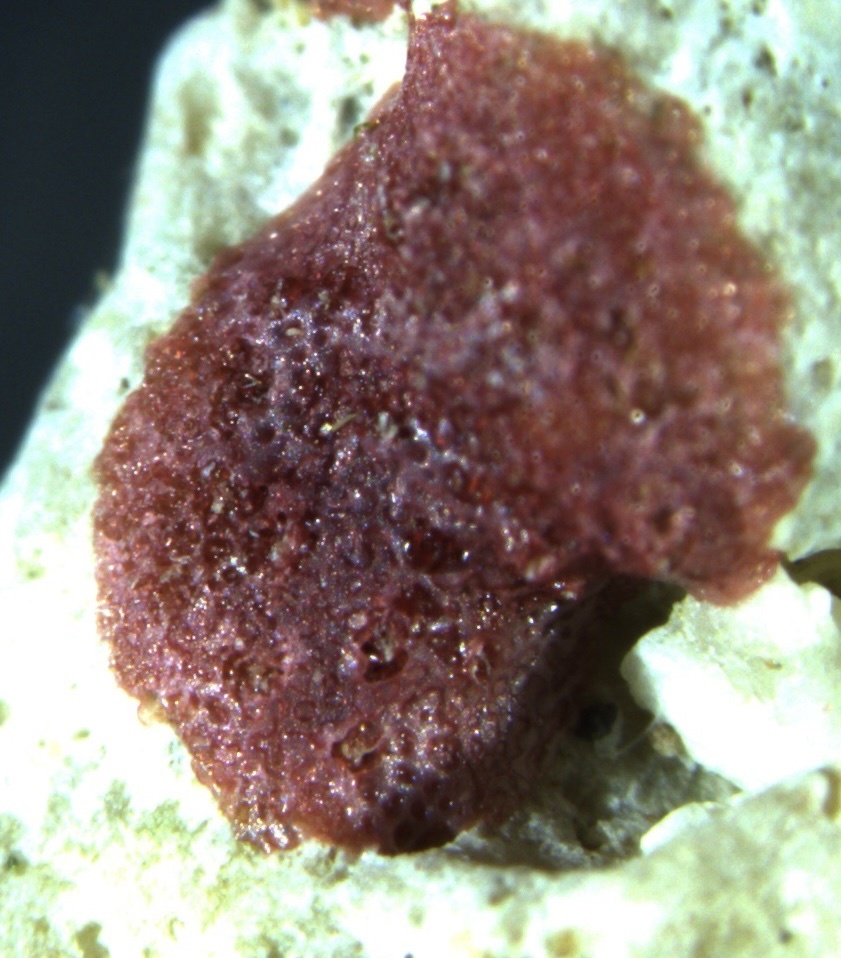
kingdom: Chromista
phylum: Foraminifera
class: Globothalamea
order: Rotaliida
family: Homotrematidae
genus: Homotrema
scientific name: Homotrema rubrum
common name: Red foram
